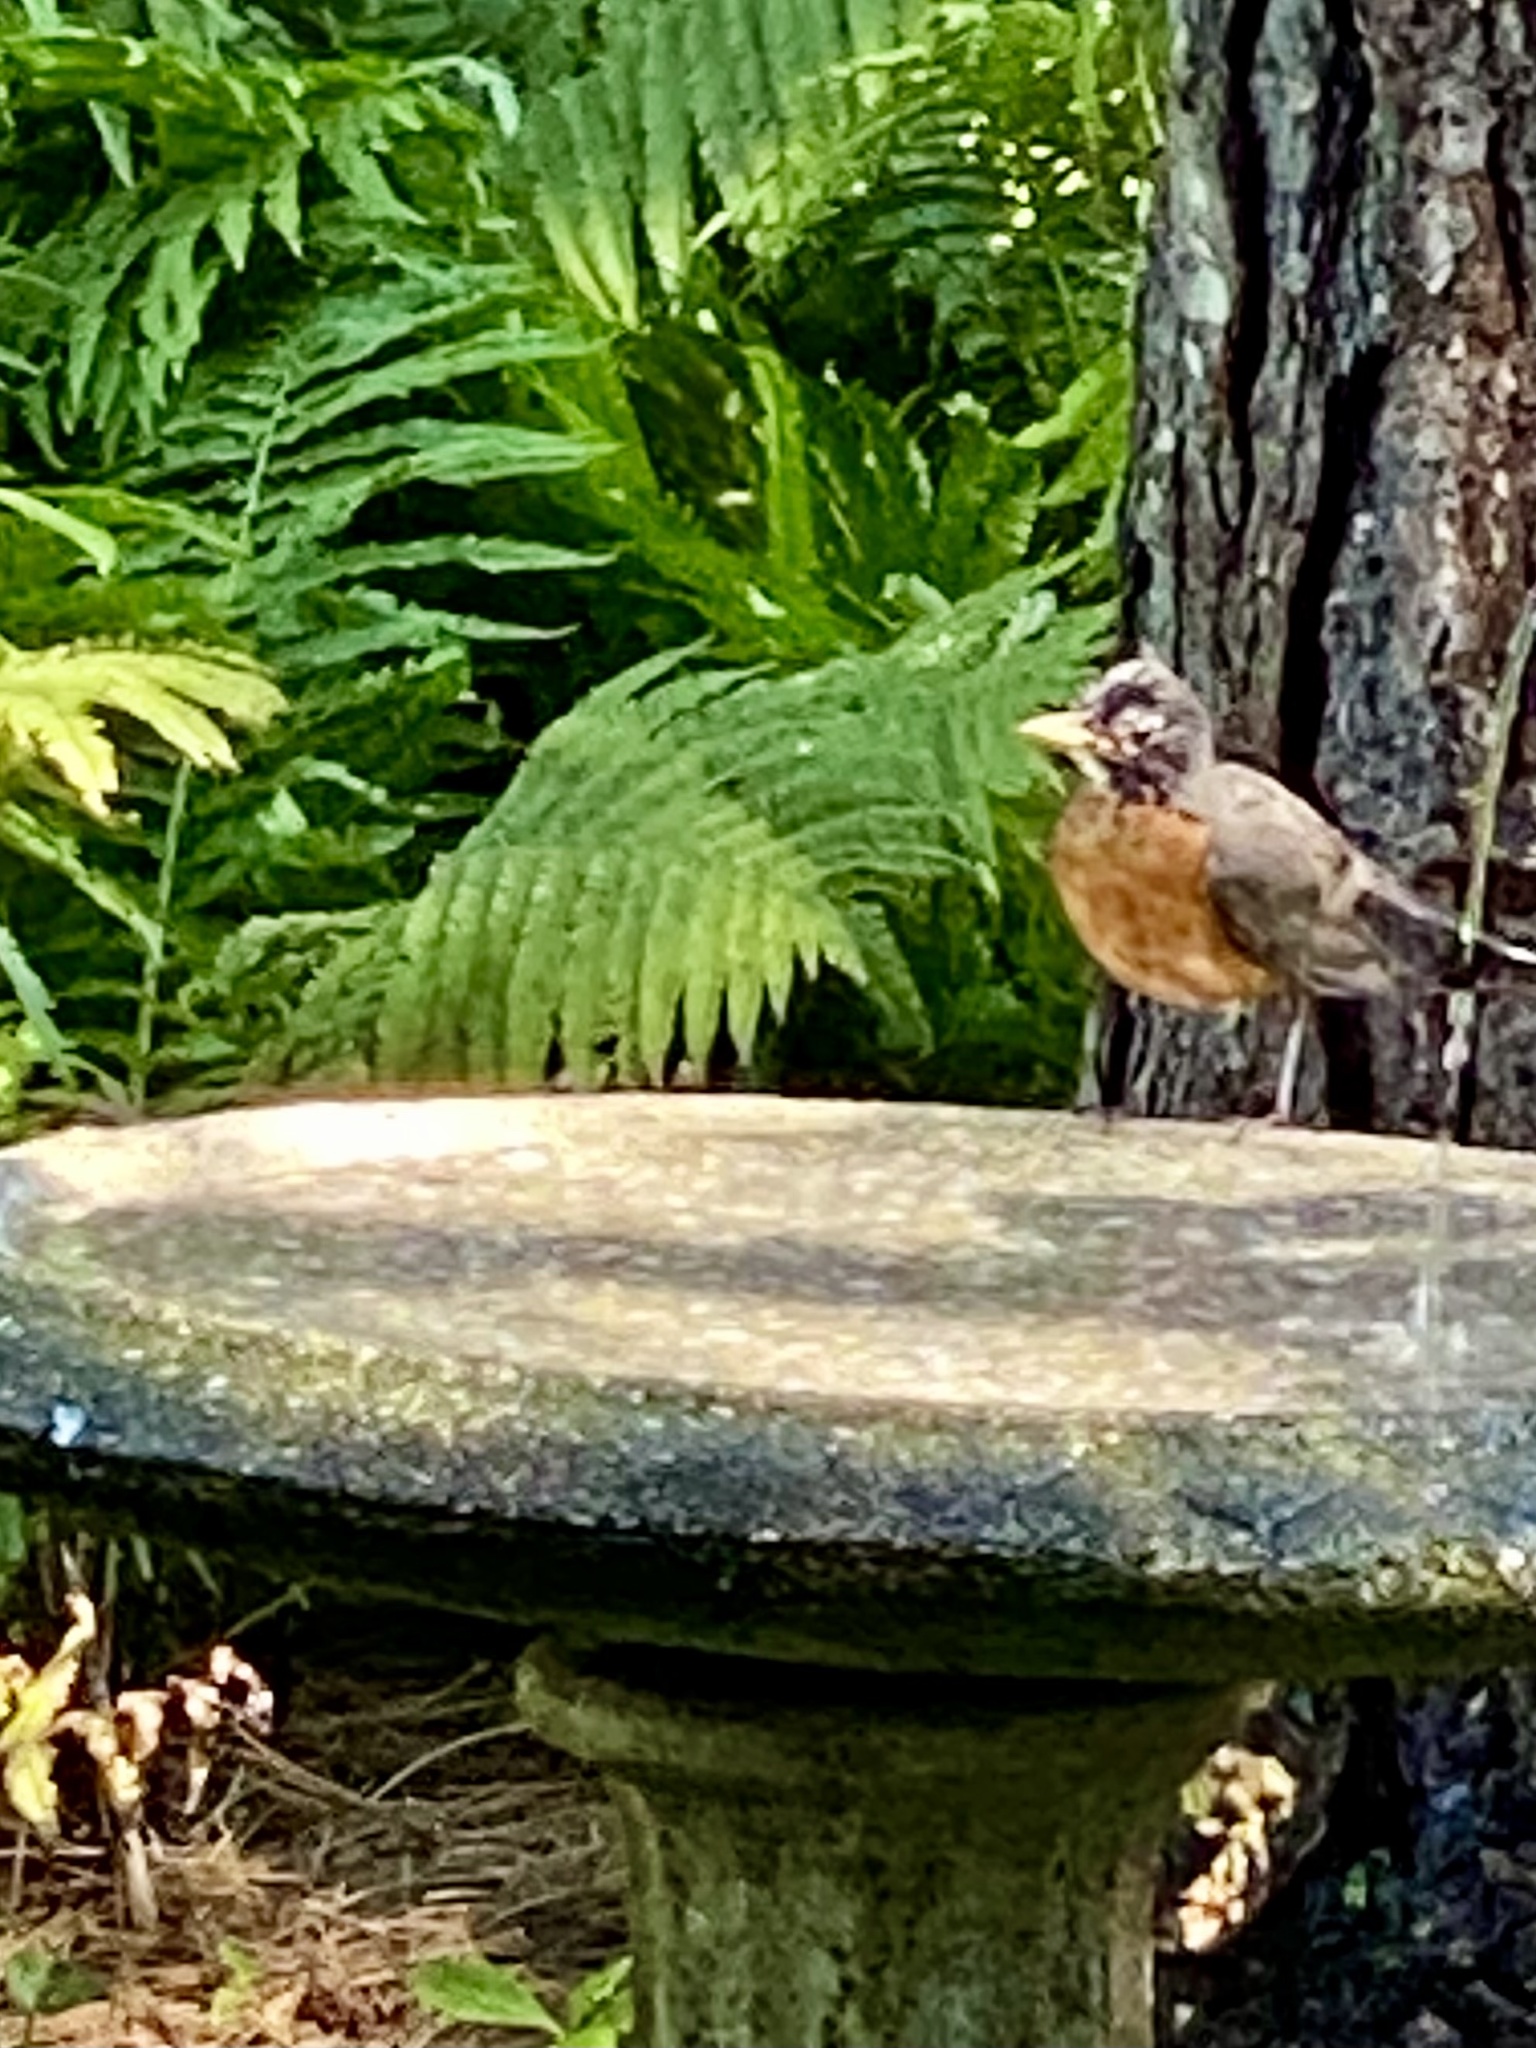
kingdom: Animalia
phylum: Chordata
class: Aves
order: Passeriformes
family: Turdidae
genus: Turdus
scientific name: Turdus migratorius
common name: American robin
